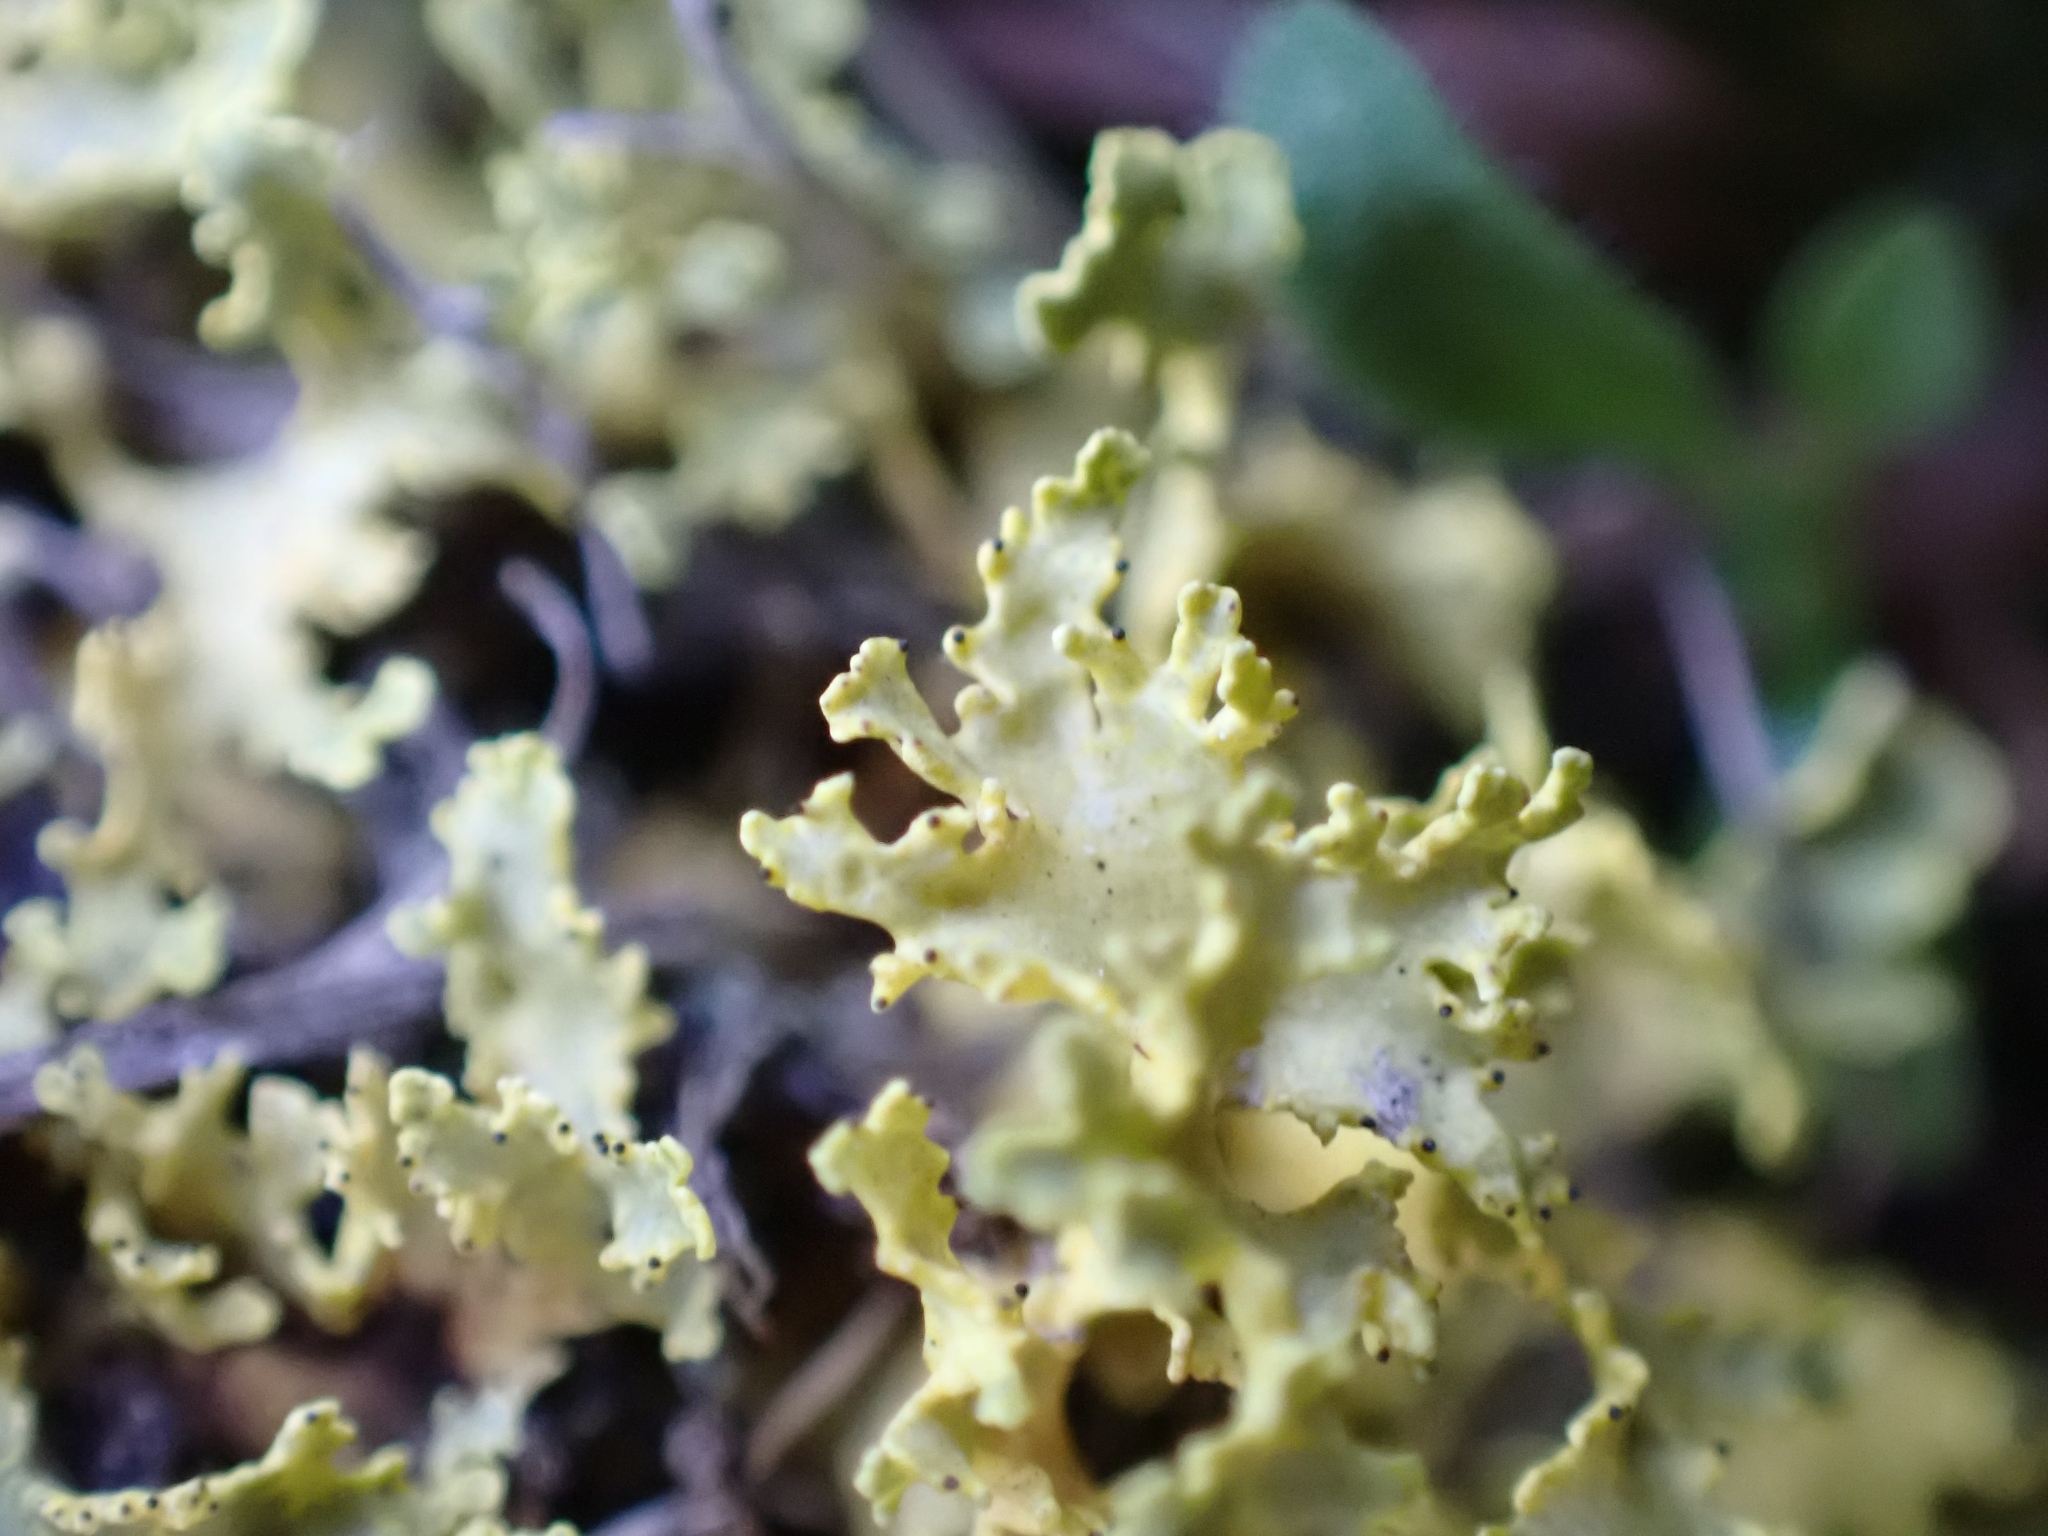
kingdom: Fungi
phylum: Ascomycota
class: Lecanoromycetes
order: Lecanorales
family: Parmeliaceae
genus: Vulpicida
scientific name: Vulpicida pinastri
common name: Powdered sunshine lichen
